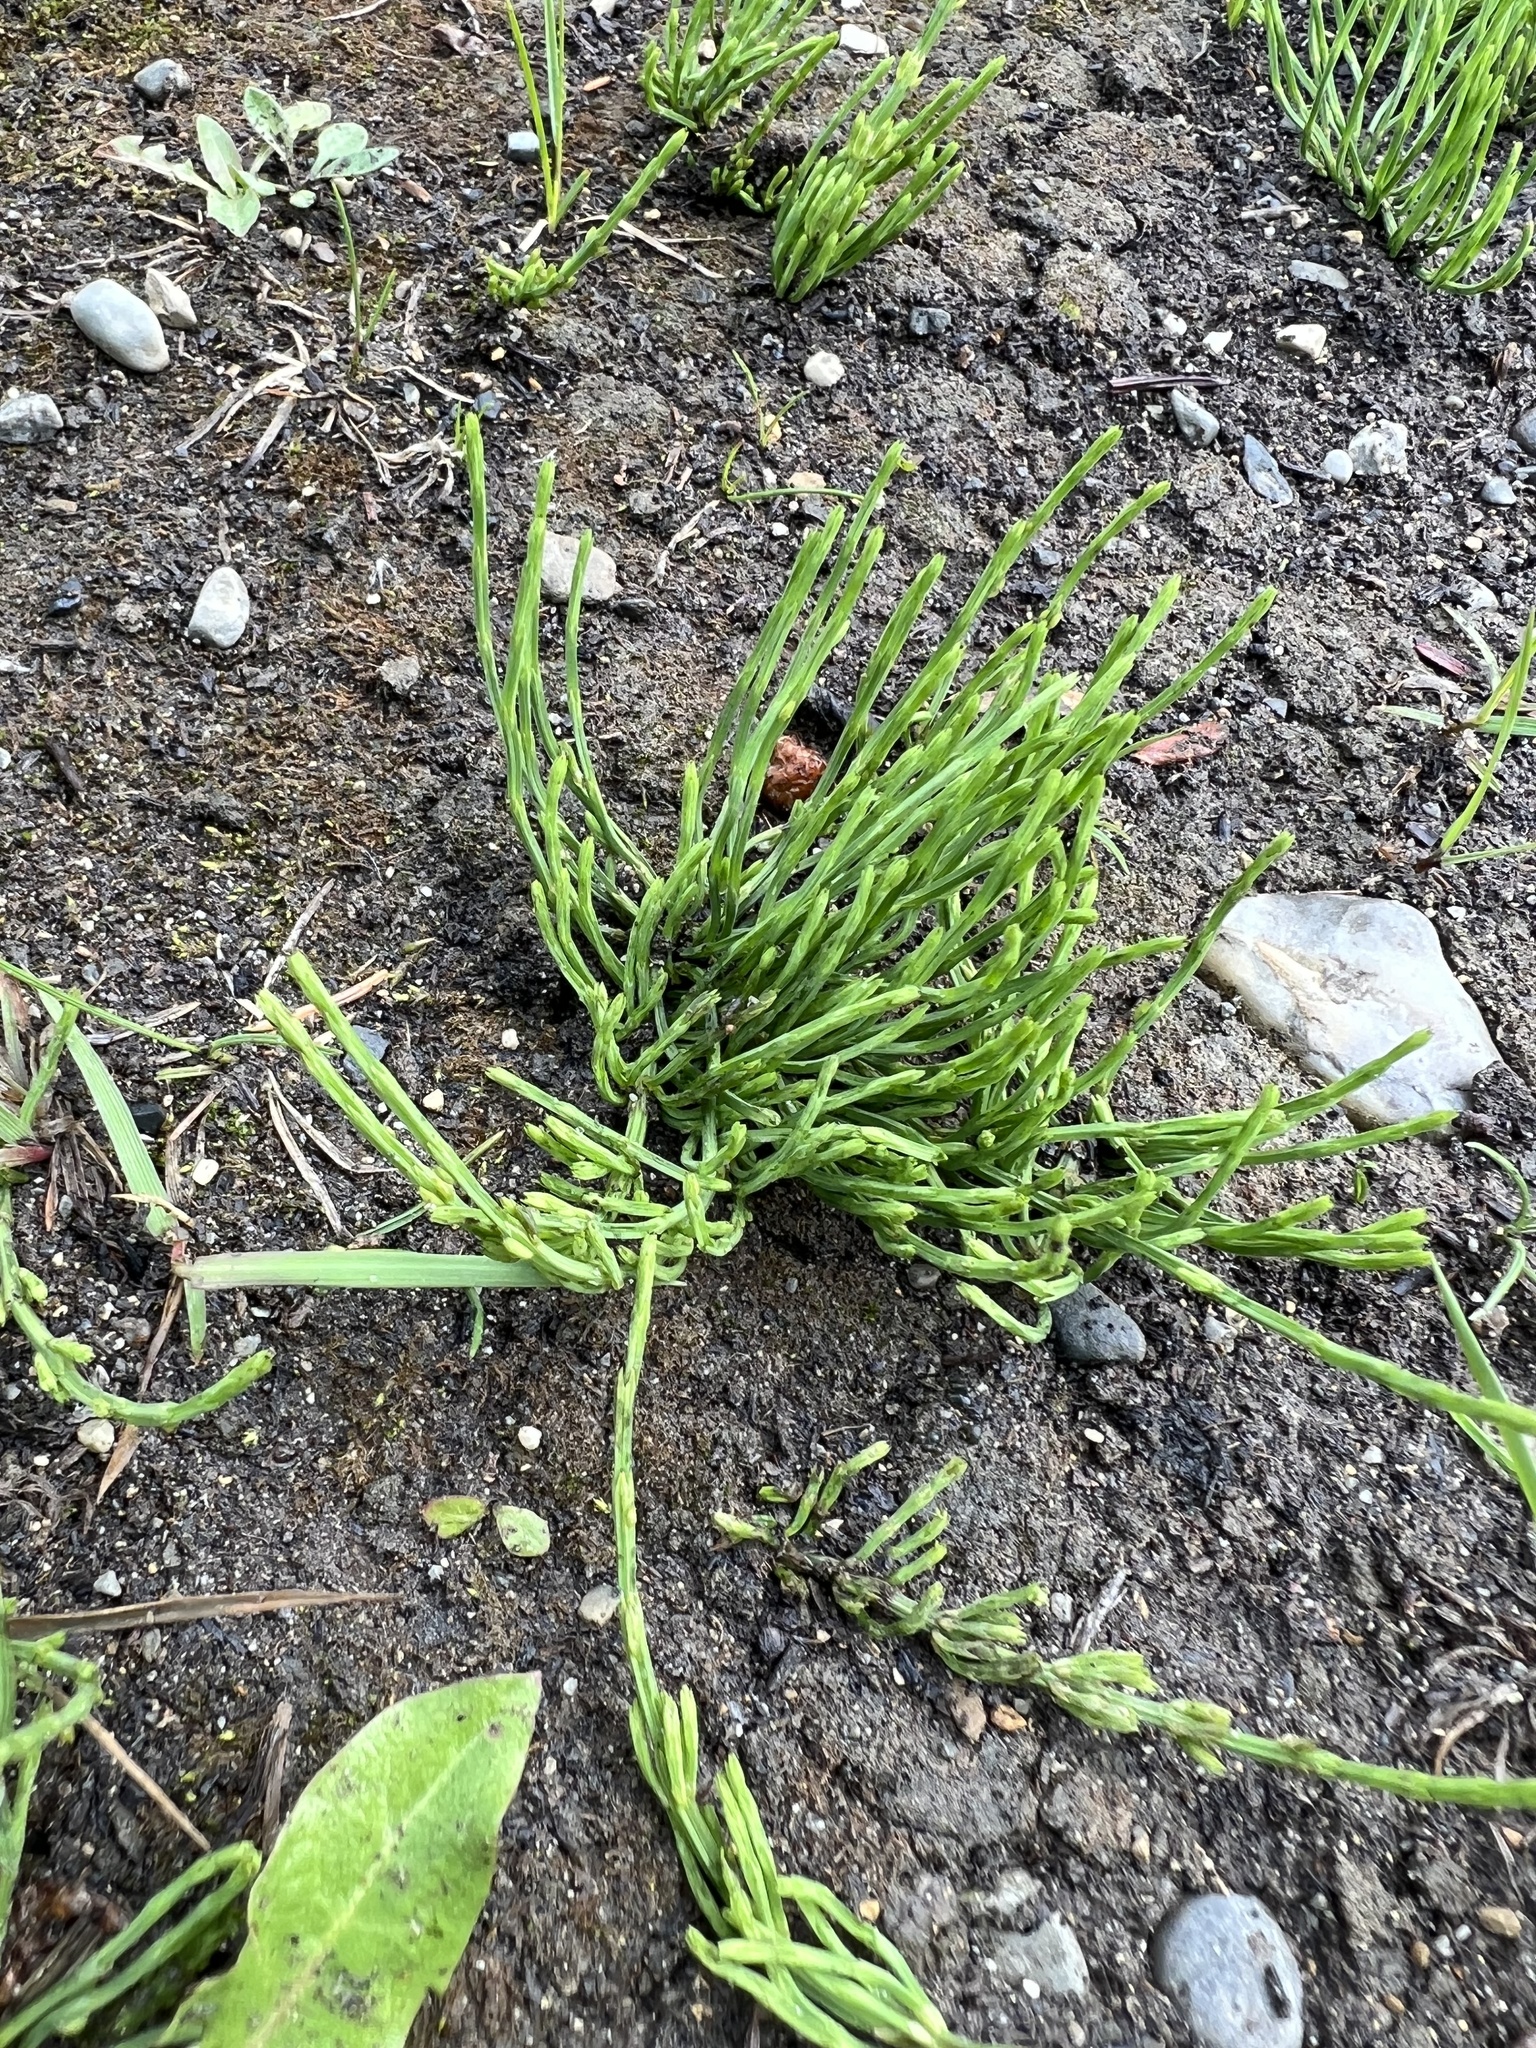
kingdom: Plantae
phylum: Tracheophyta
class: Polypodiopsida
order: Equisetales
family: Equisetaceae
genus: Equisetum
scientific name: Equisetum arvense
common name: Field horsetail
